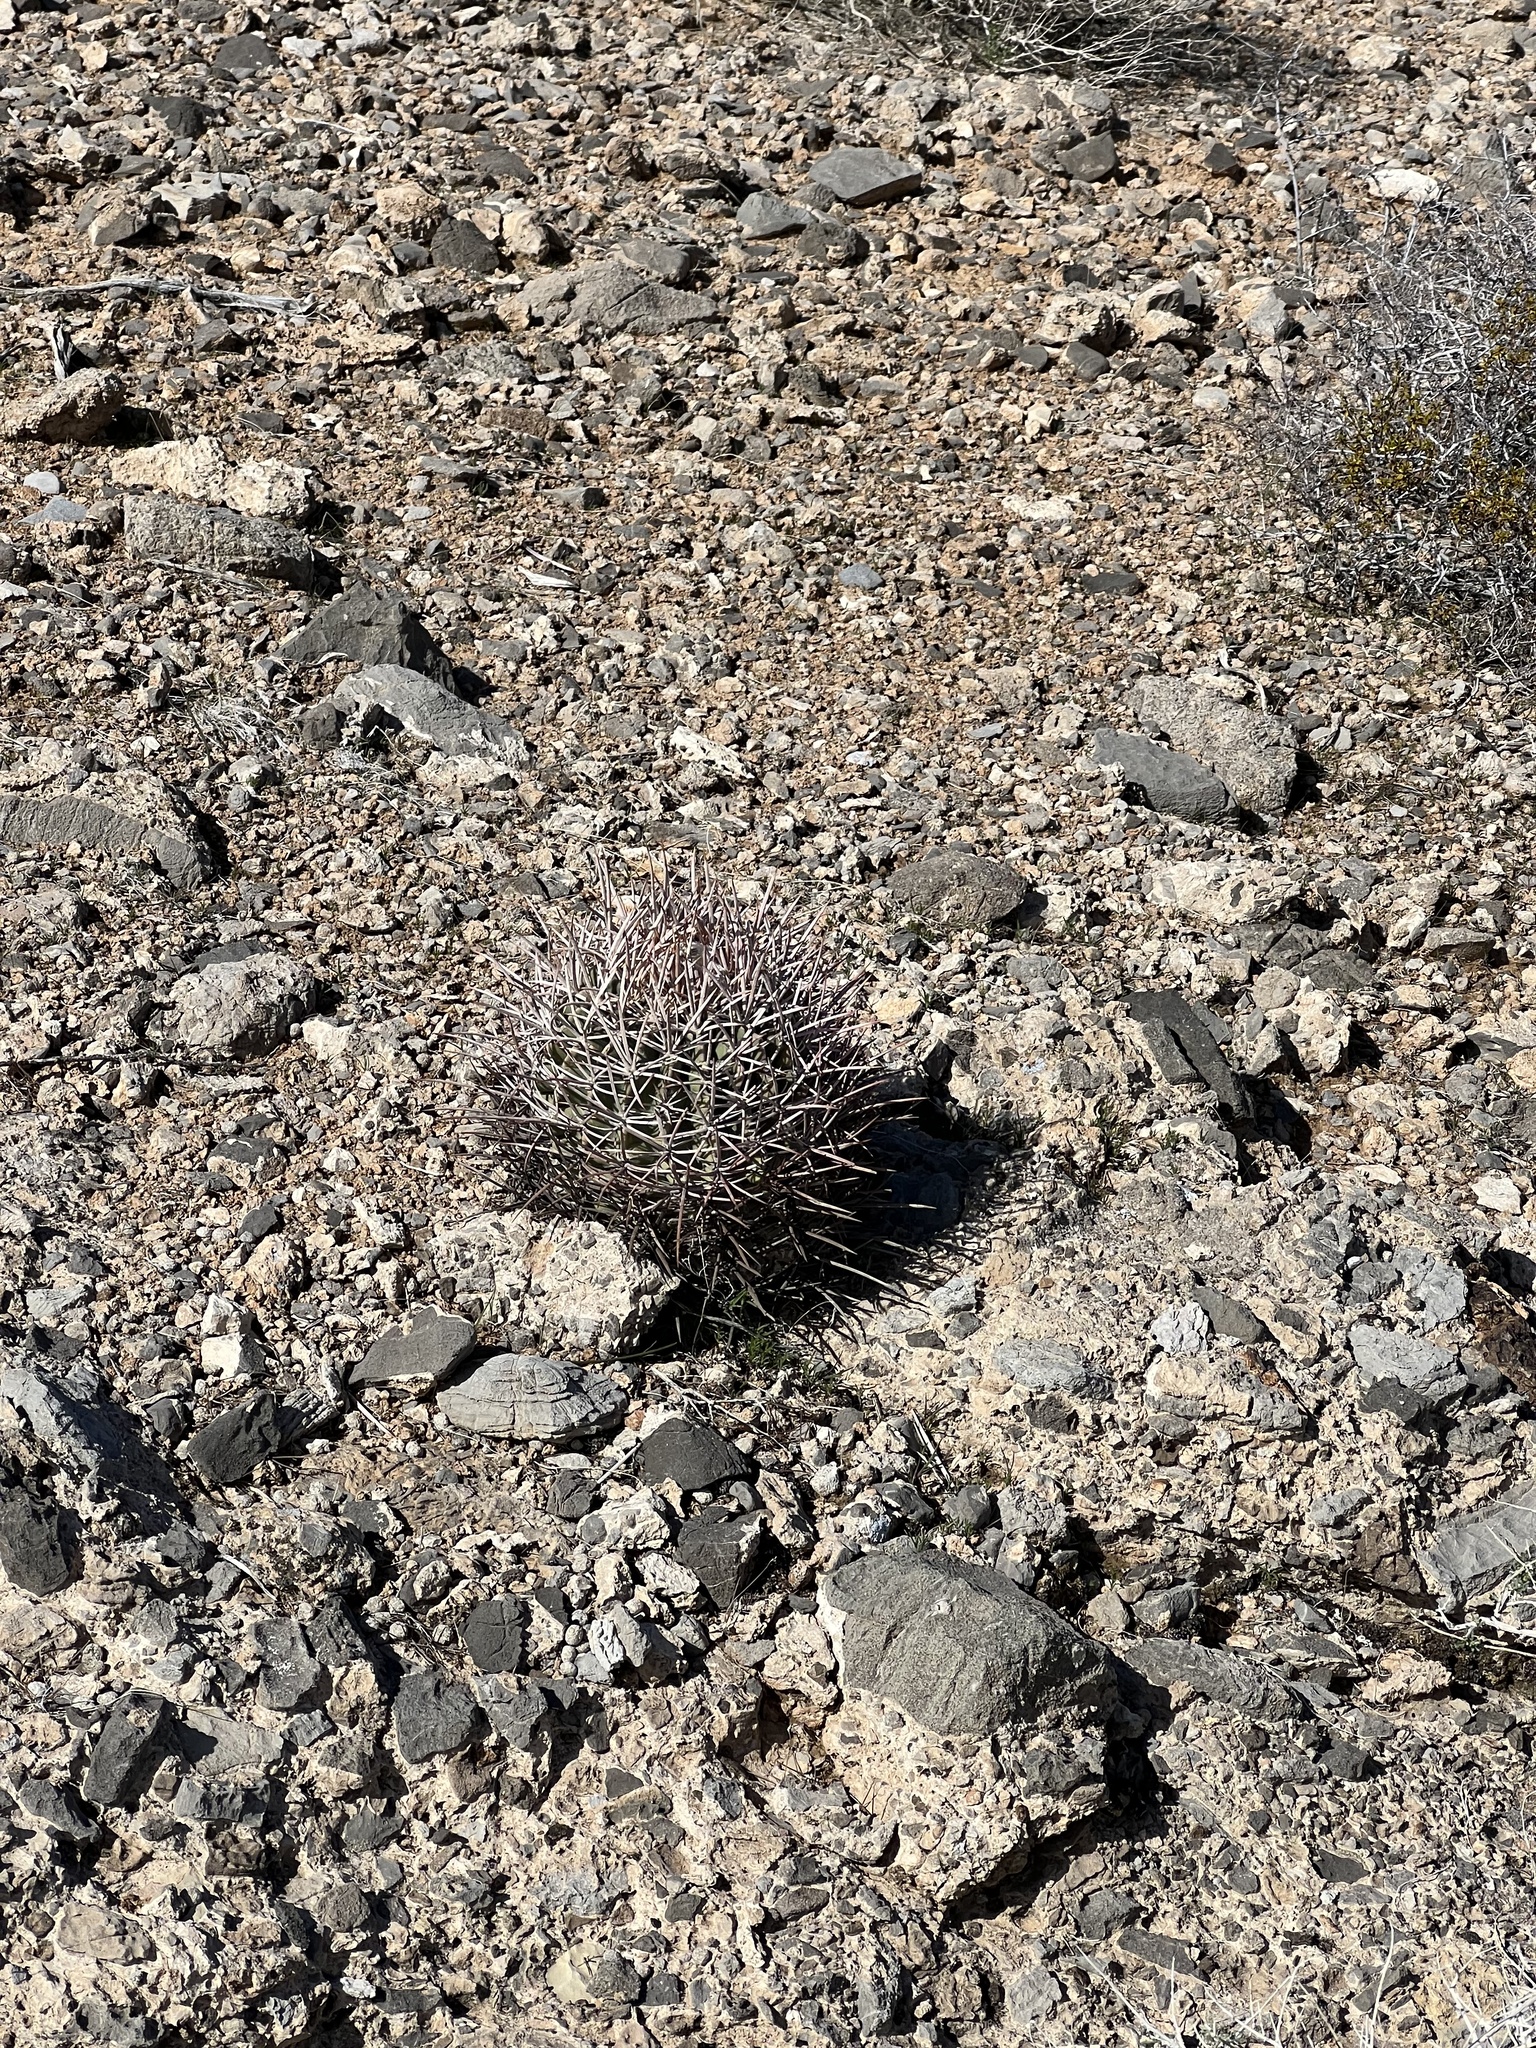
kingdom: Plantae
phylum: Tracheophyta
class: Magnoliopsida
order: Caryophyllales
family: Cactaceae
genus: Echinocactus
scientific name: Echinocactus polycephalus
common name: Cottontop cactus
